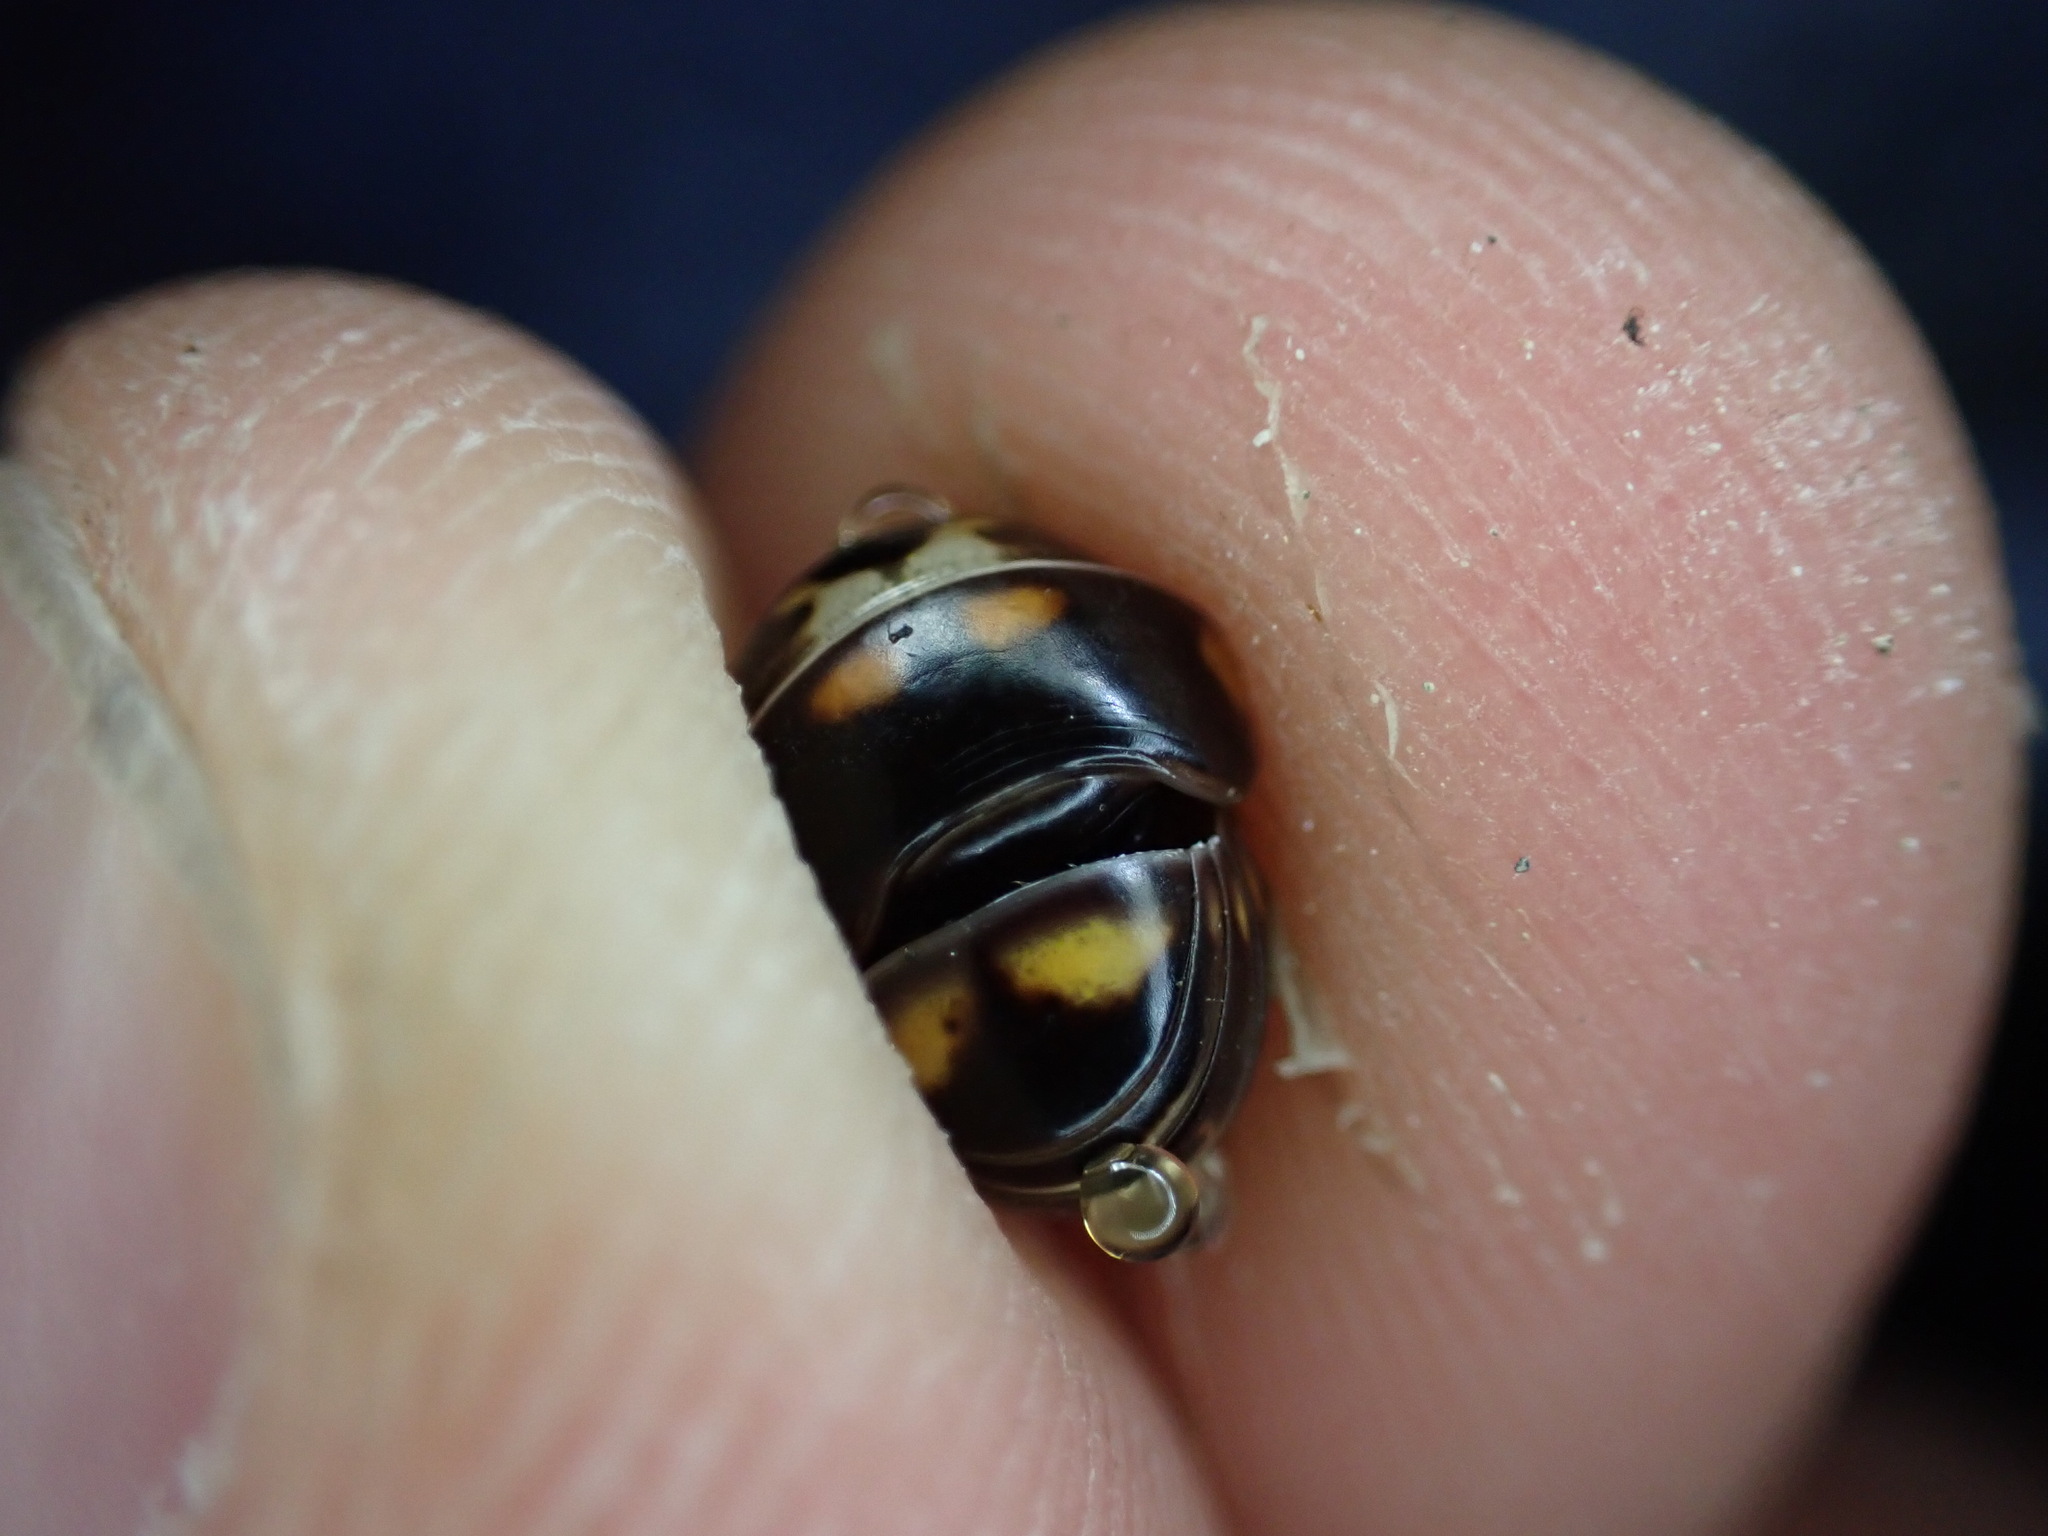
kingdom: Animalia
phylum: Arthropoda
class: Diplopoda
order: Glomerida
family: Glomeridae
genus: Glomeris
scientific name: Glomeris guttata
